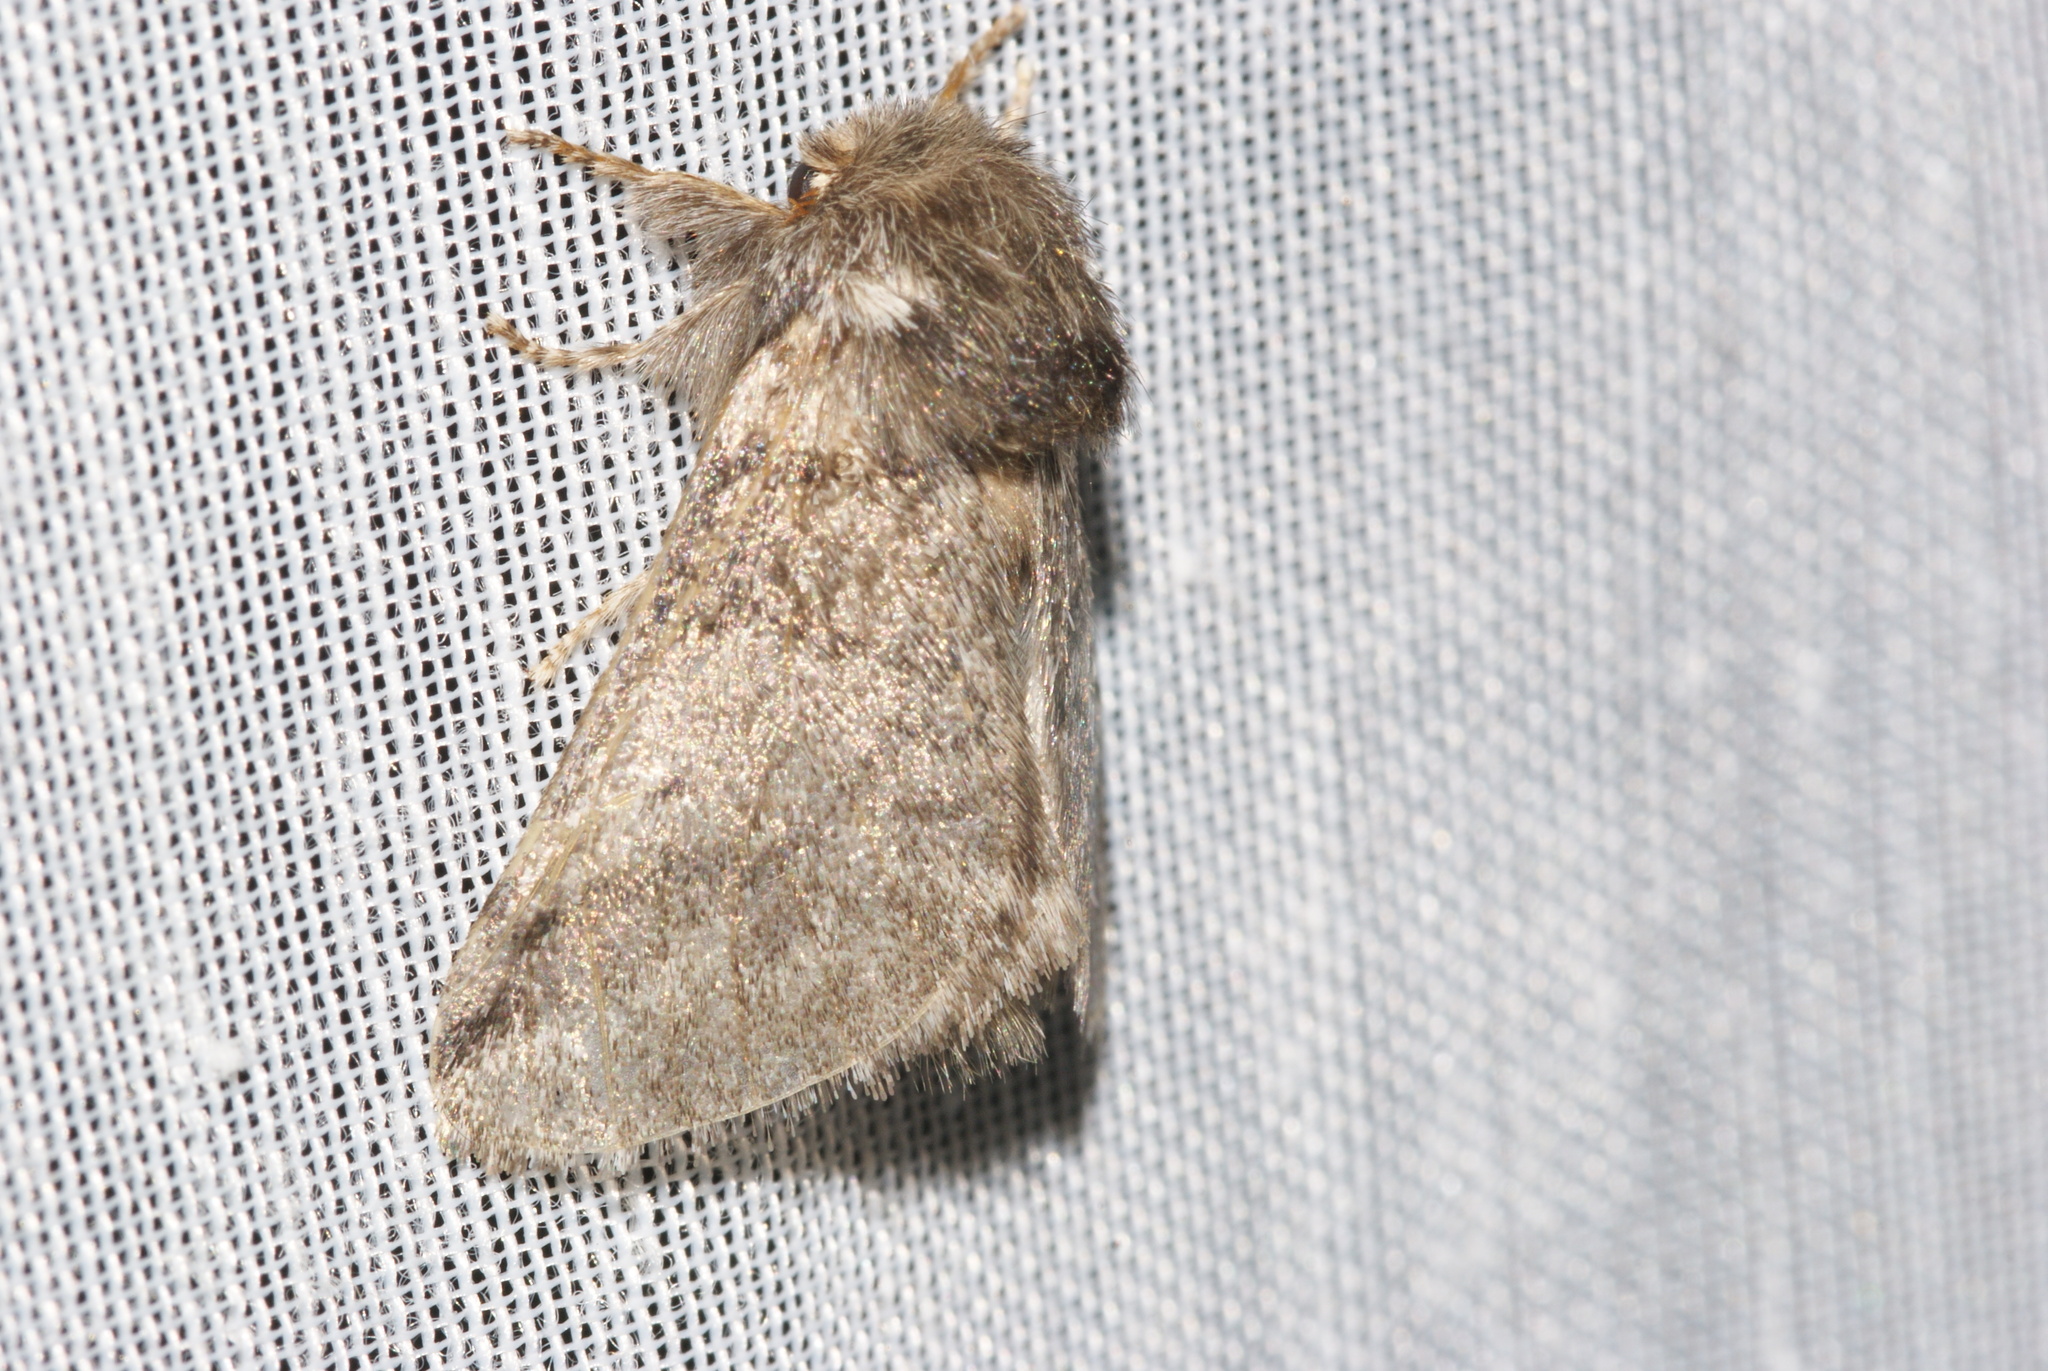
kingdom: Animalia
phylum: Arthropoda
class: Insecta
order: Lepidoptera
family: Notodontidae
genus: Thaumetopoea
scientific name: Thaumetopoea processionea
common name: Oak processionea
